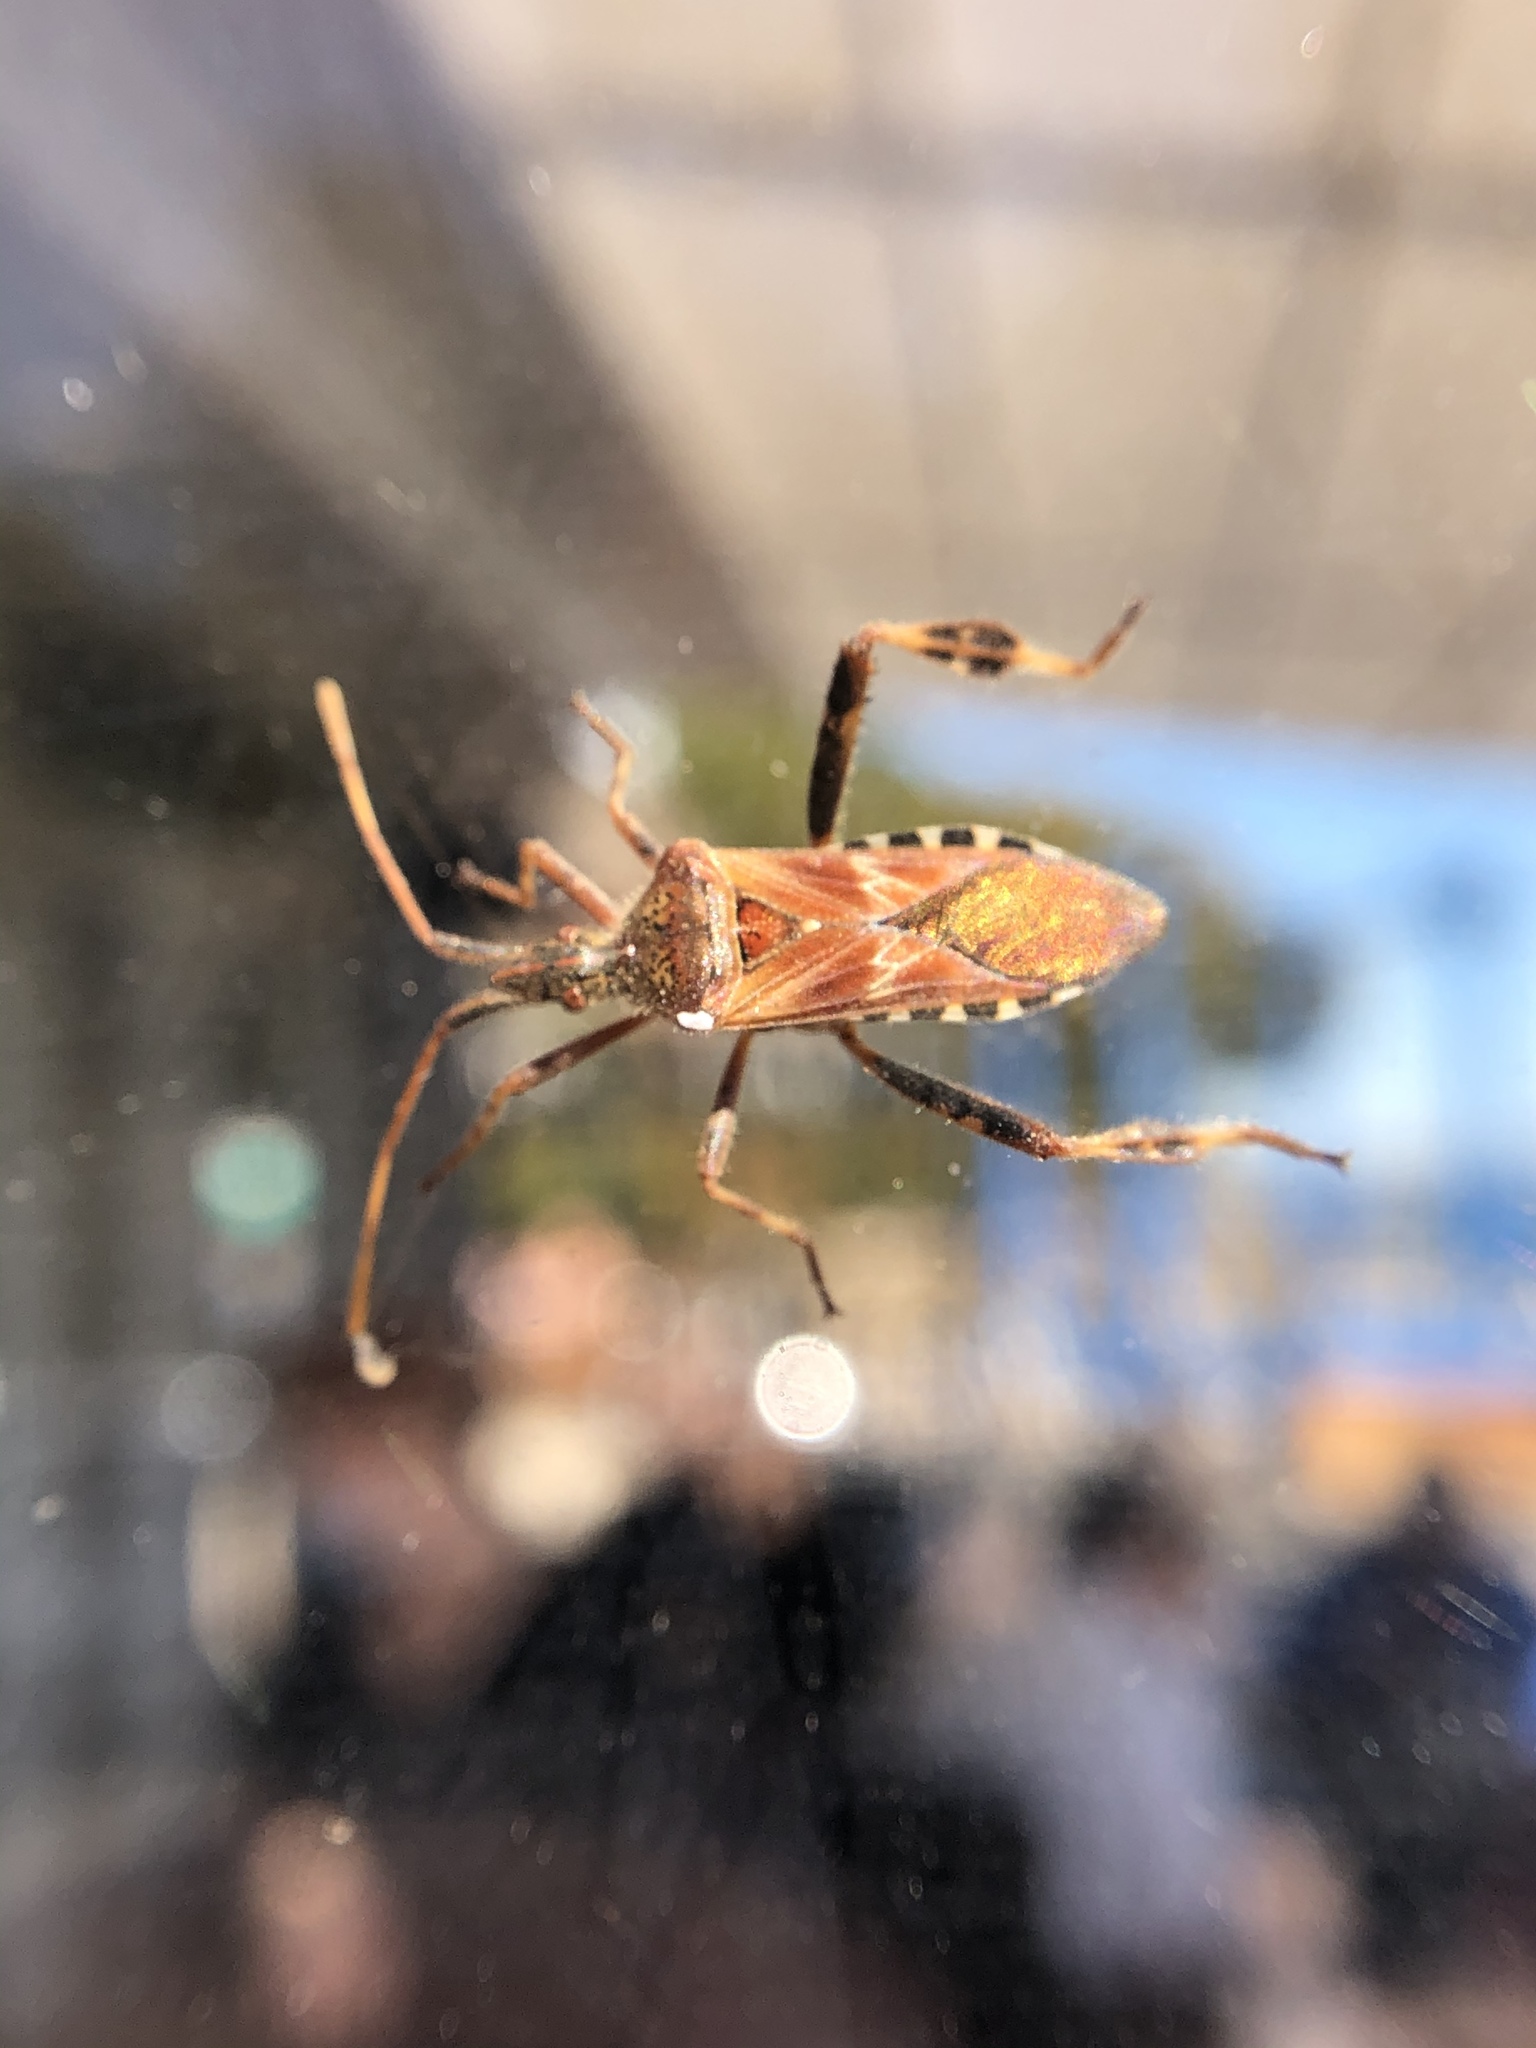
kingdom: Animalia
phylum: Arthropoda
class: Insecta
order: Hemiptera
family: Coreidae
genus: Leptoglossus
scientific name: Leptoglossus occidentalis
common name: Western conifer-seed bug
